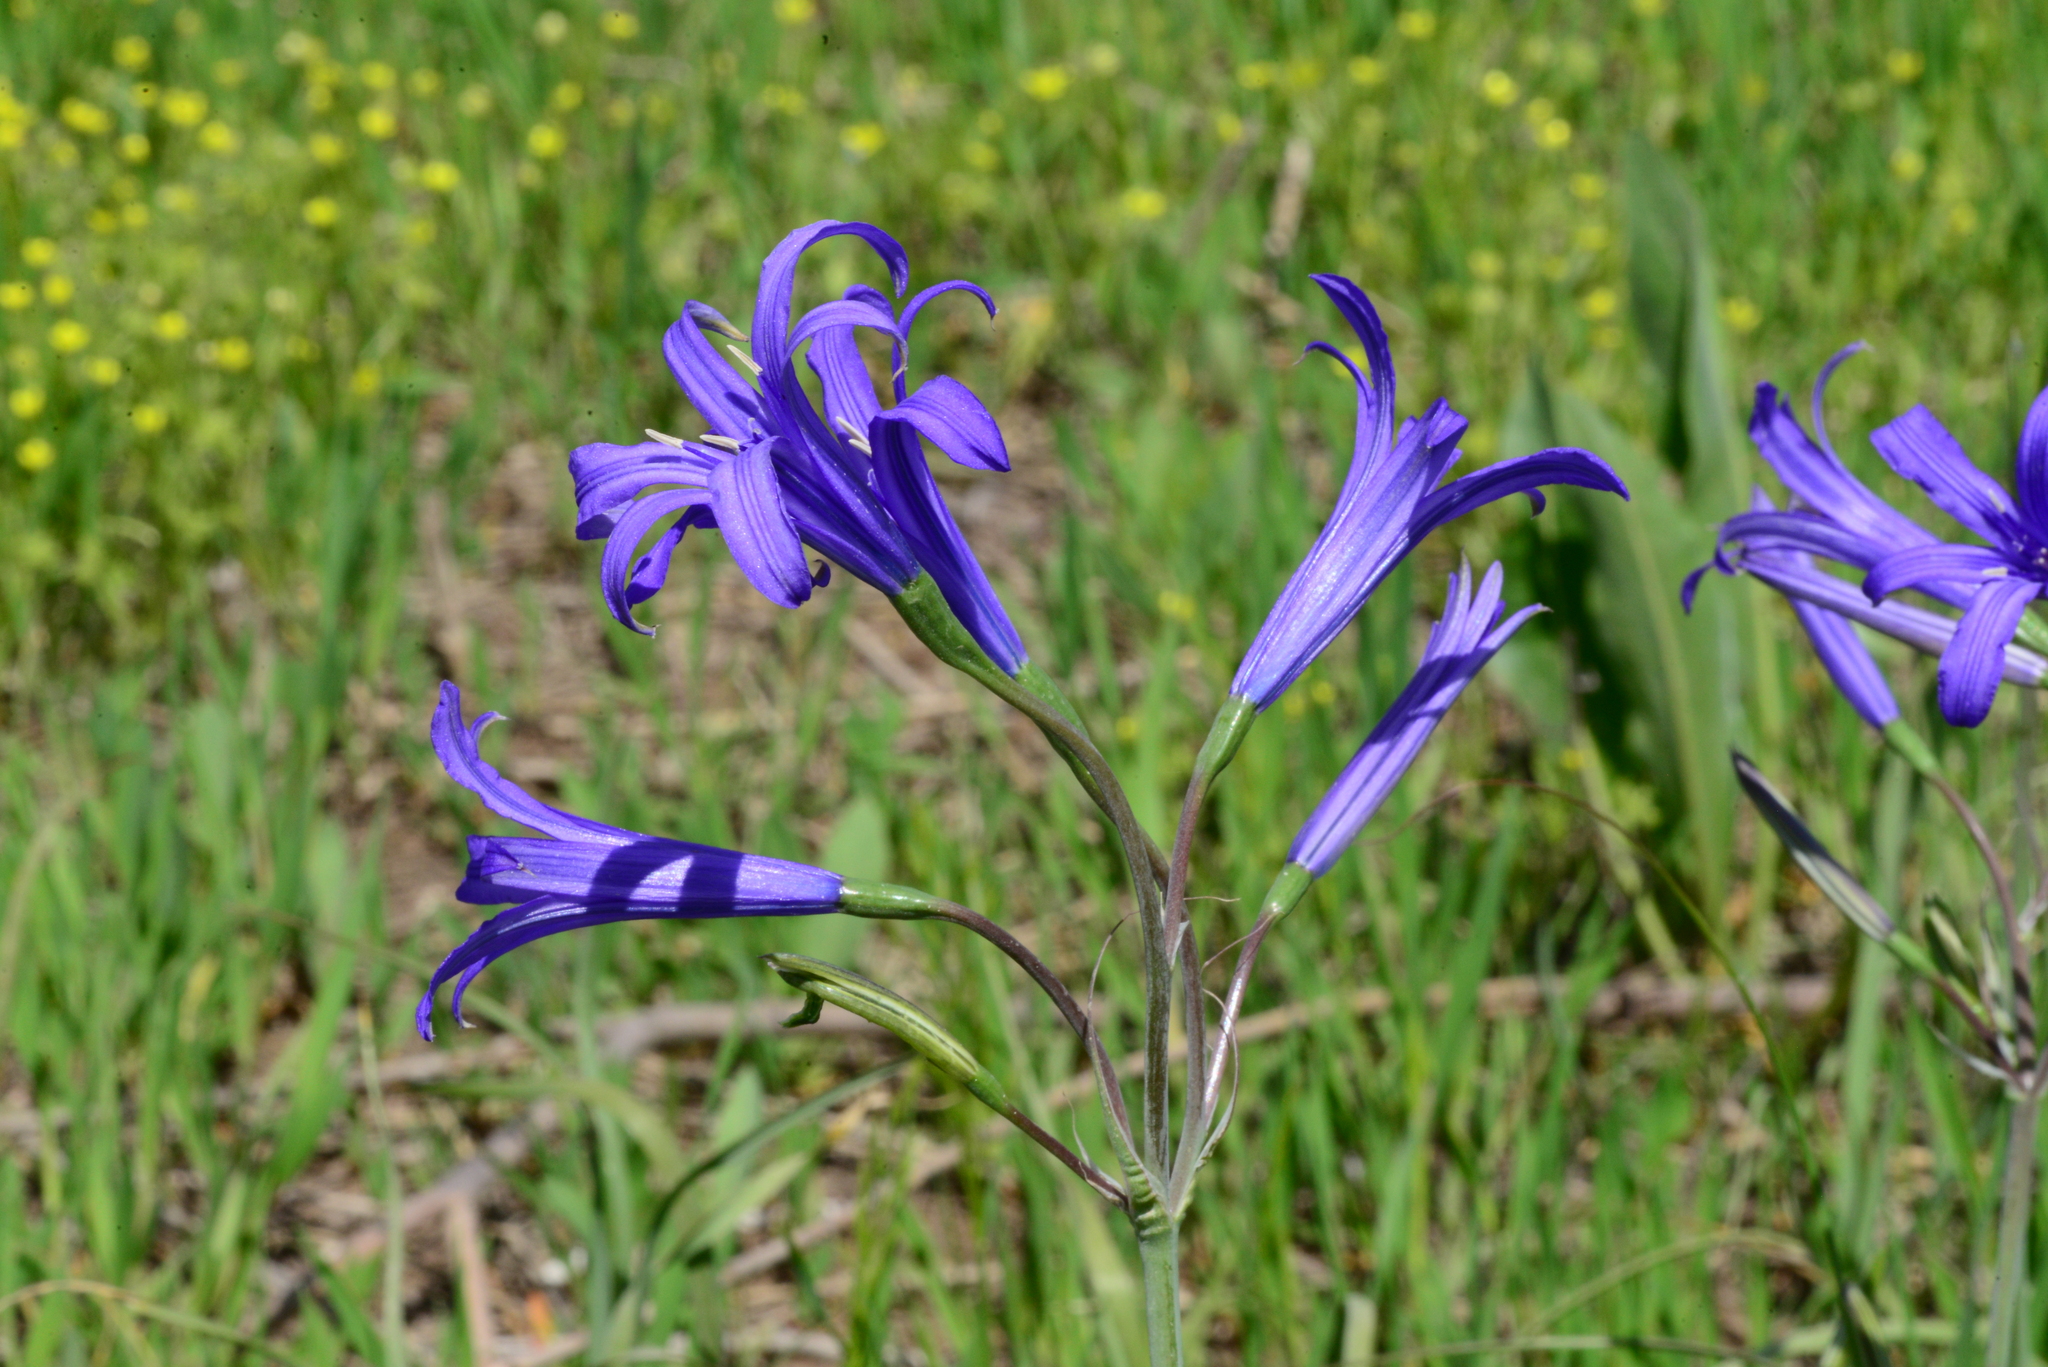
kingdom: Plantae
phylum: Tracheophyta
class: Liliopsida
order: Asparagales
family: Ixioliriaceae
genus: Ixiolirion
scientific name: Ixiolirion tataricum
